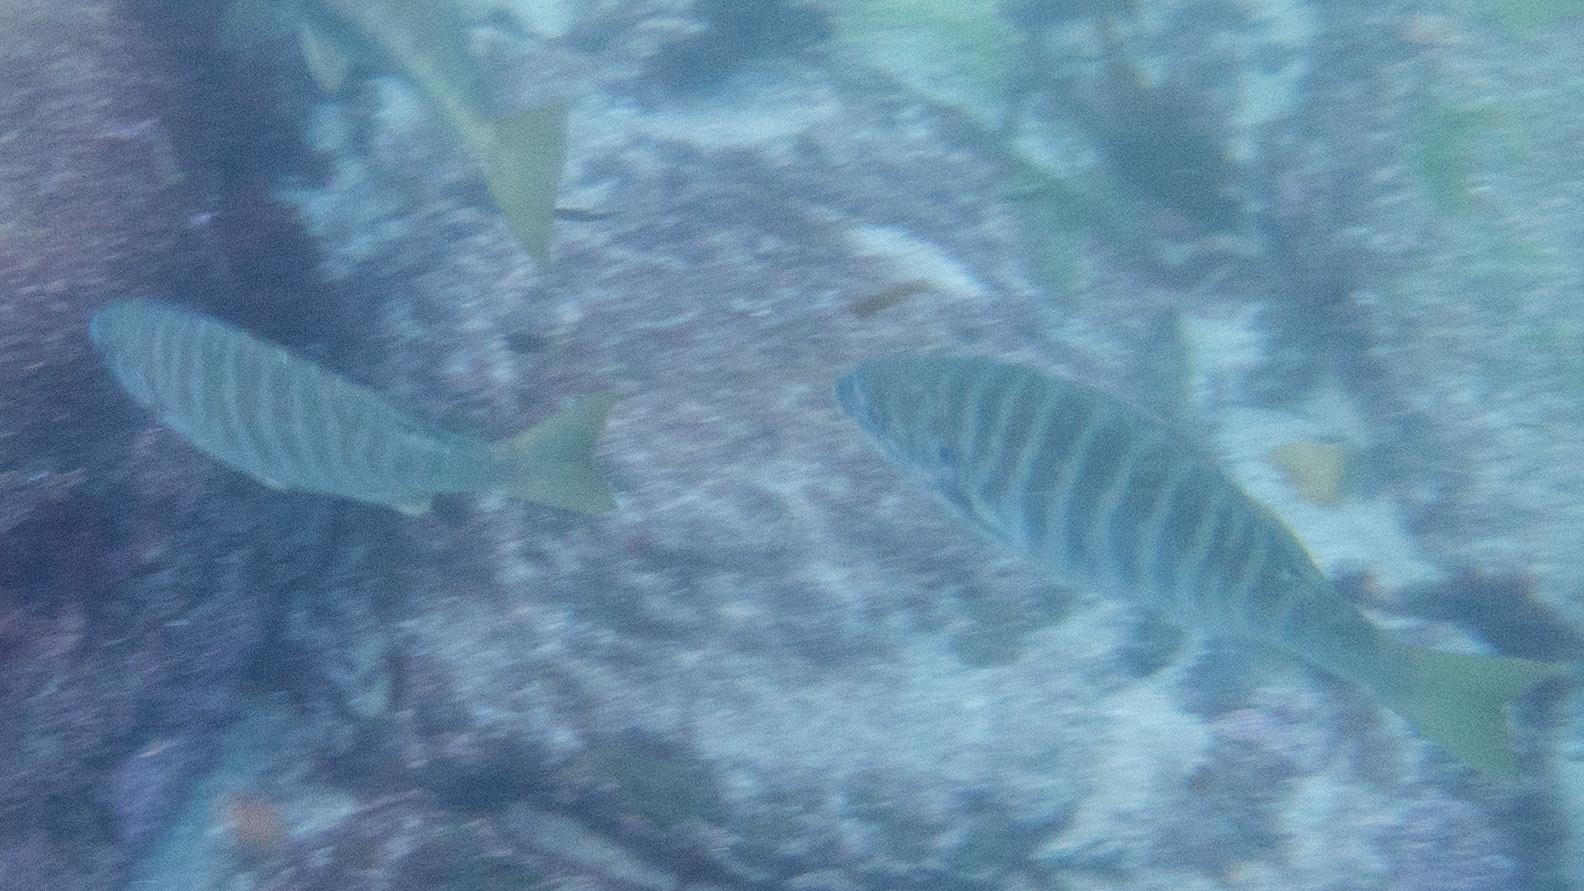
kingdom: Animalia
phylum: Chordata
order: Perciformes
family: Kyphosidae
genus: Kyphosus
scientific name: Kyphosus azureus
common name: Perch
